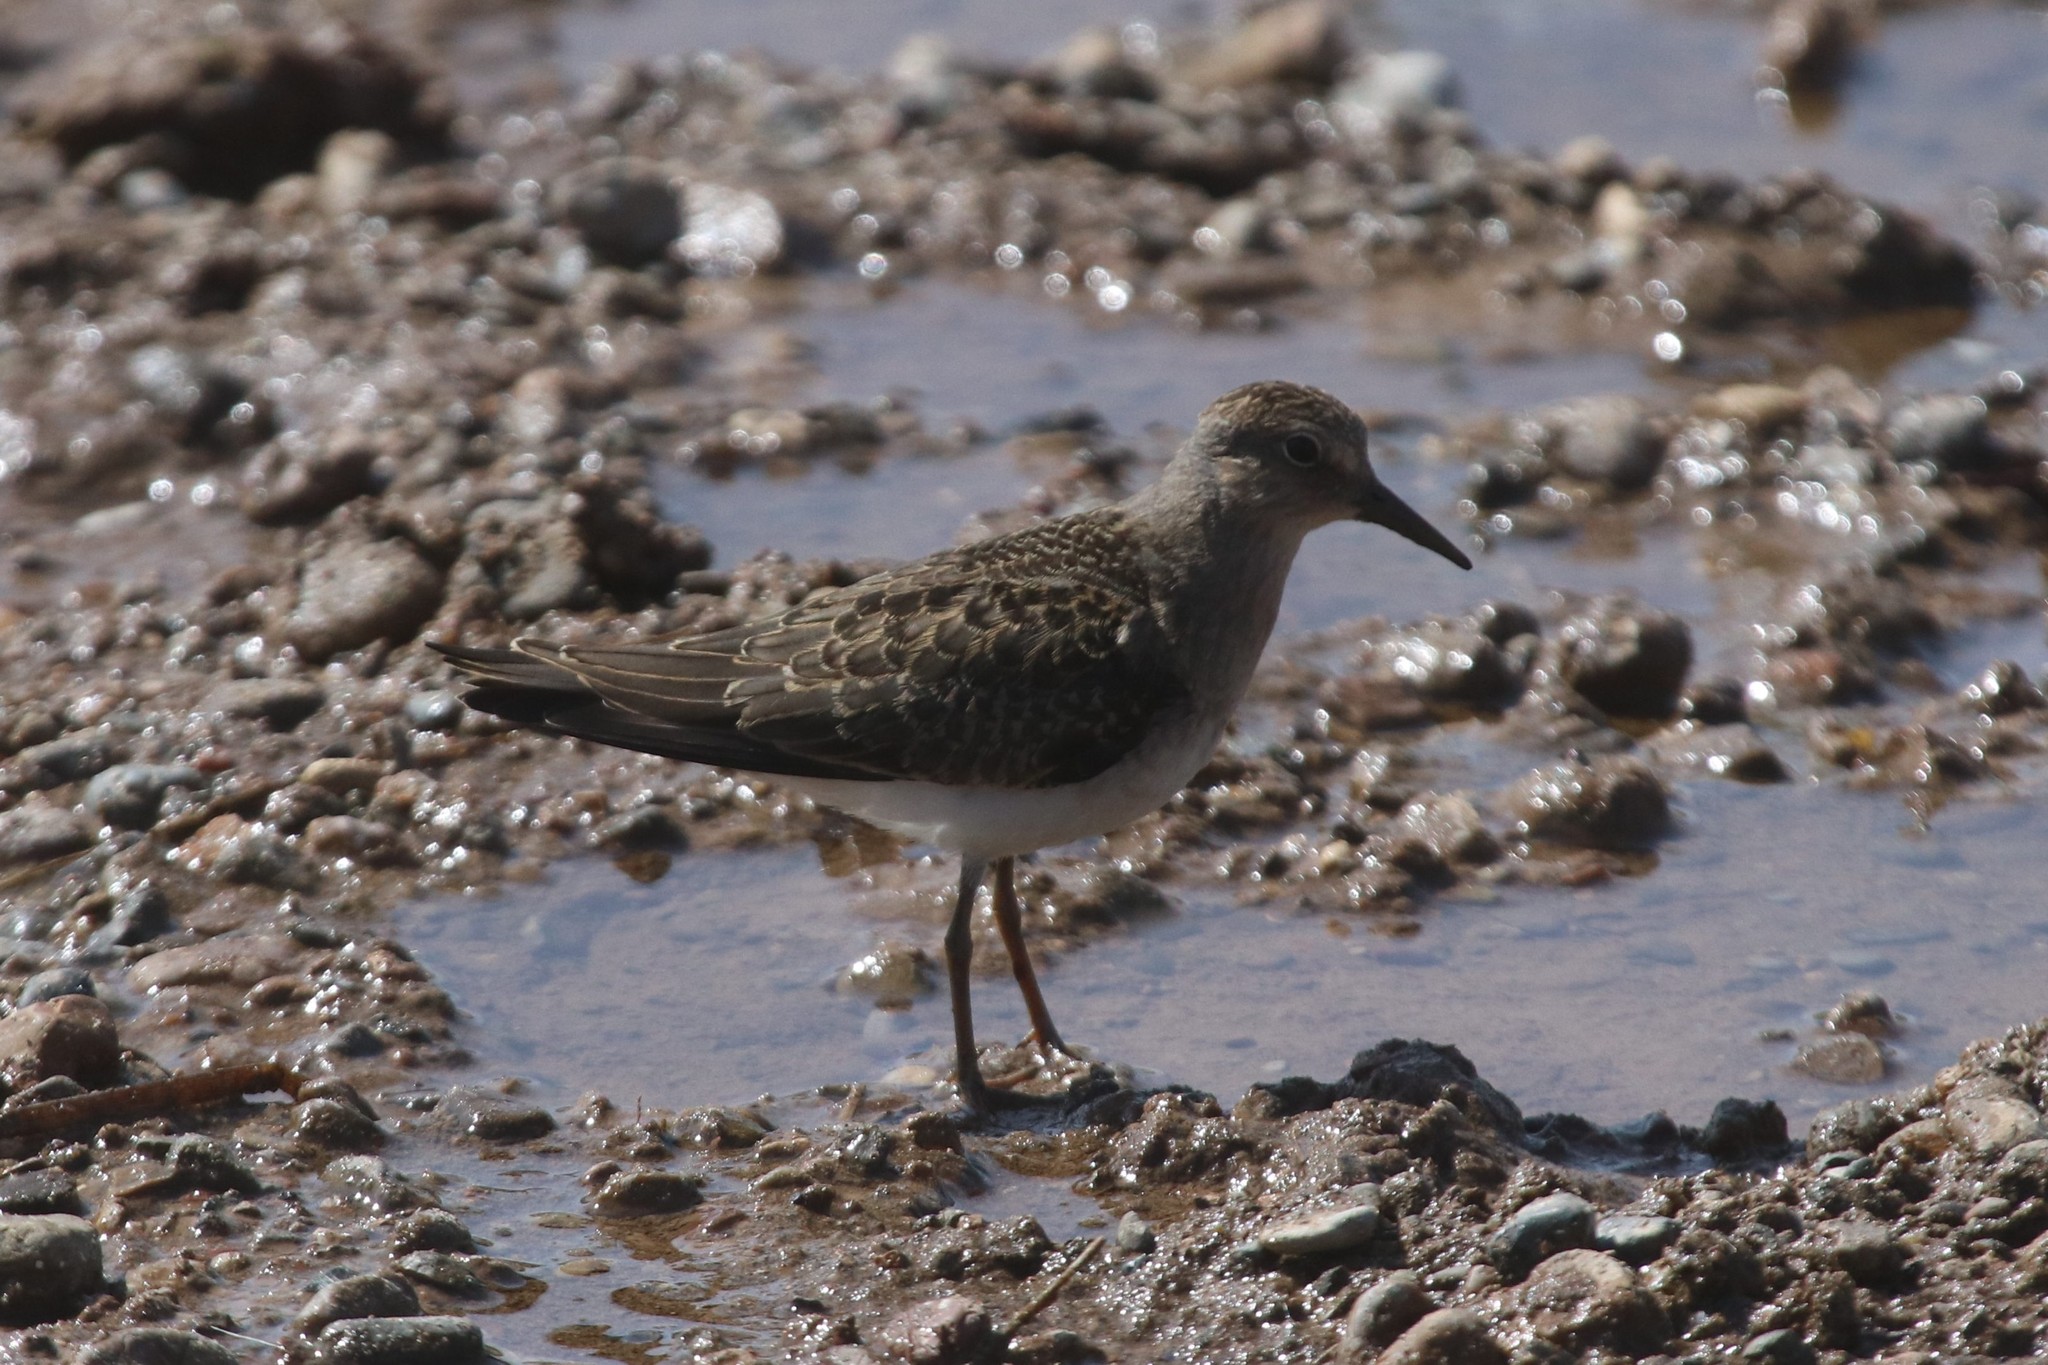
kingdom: Animalia
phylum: Chordata
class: Aves
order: Charadriiformes
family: Scolopacidae
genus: Calidris
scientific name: Calidris temminckii
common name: Temminck's stint
